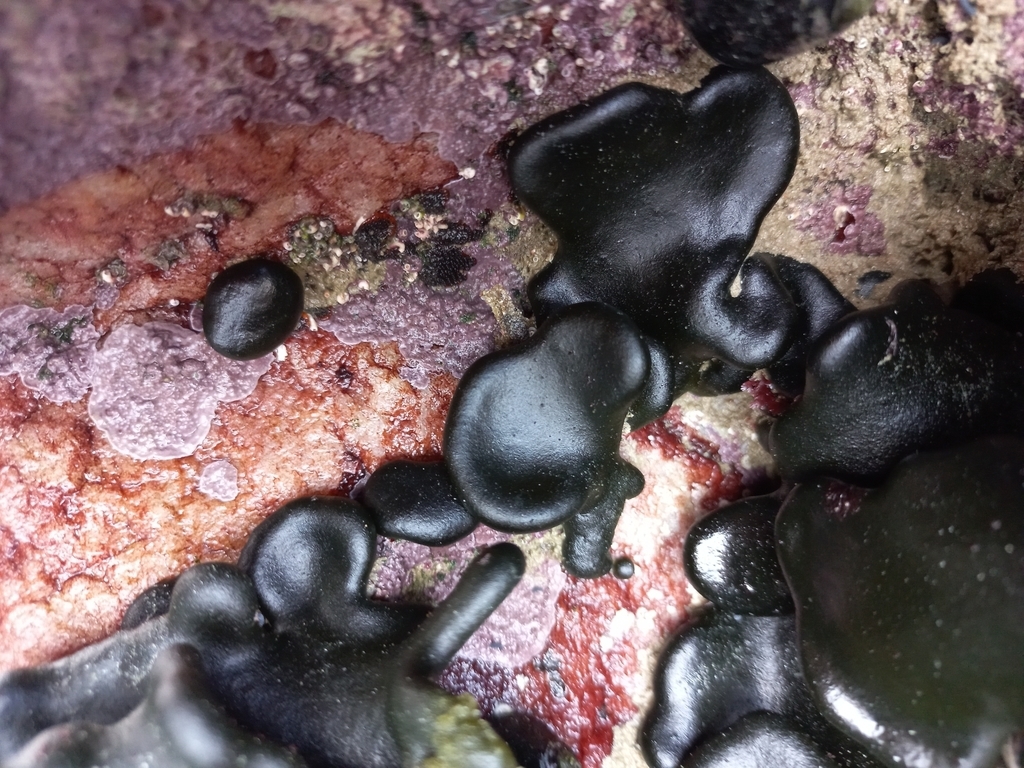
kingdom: Plantae
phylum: Chlorophyta
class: Ulvophyceae
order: Bryopsidales
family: Codiaceae
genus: Codium
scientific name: Codium
